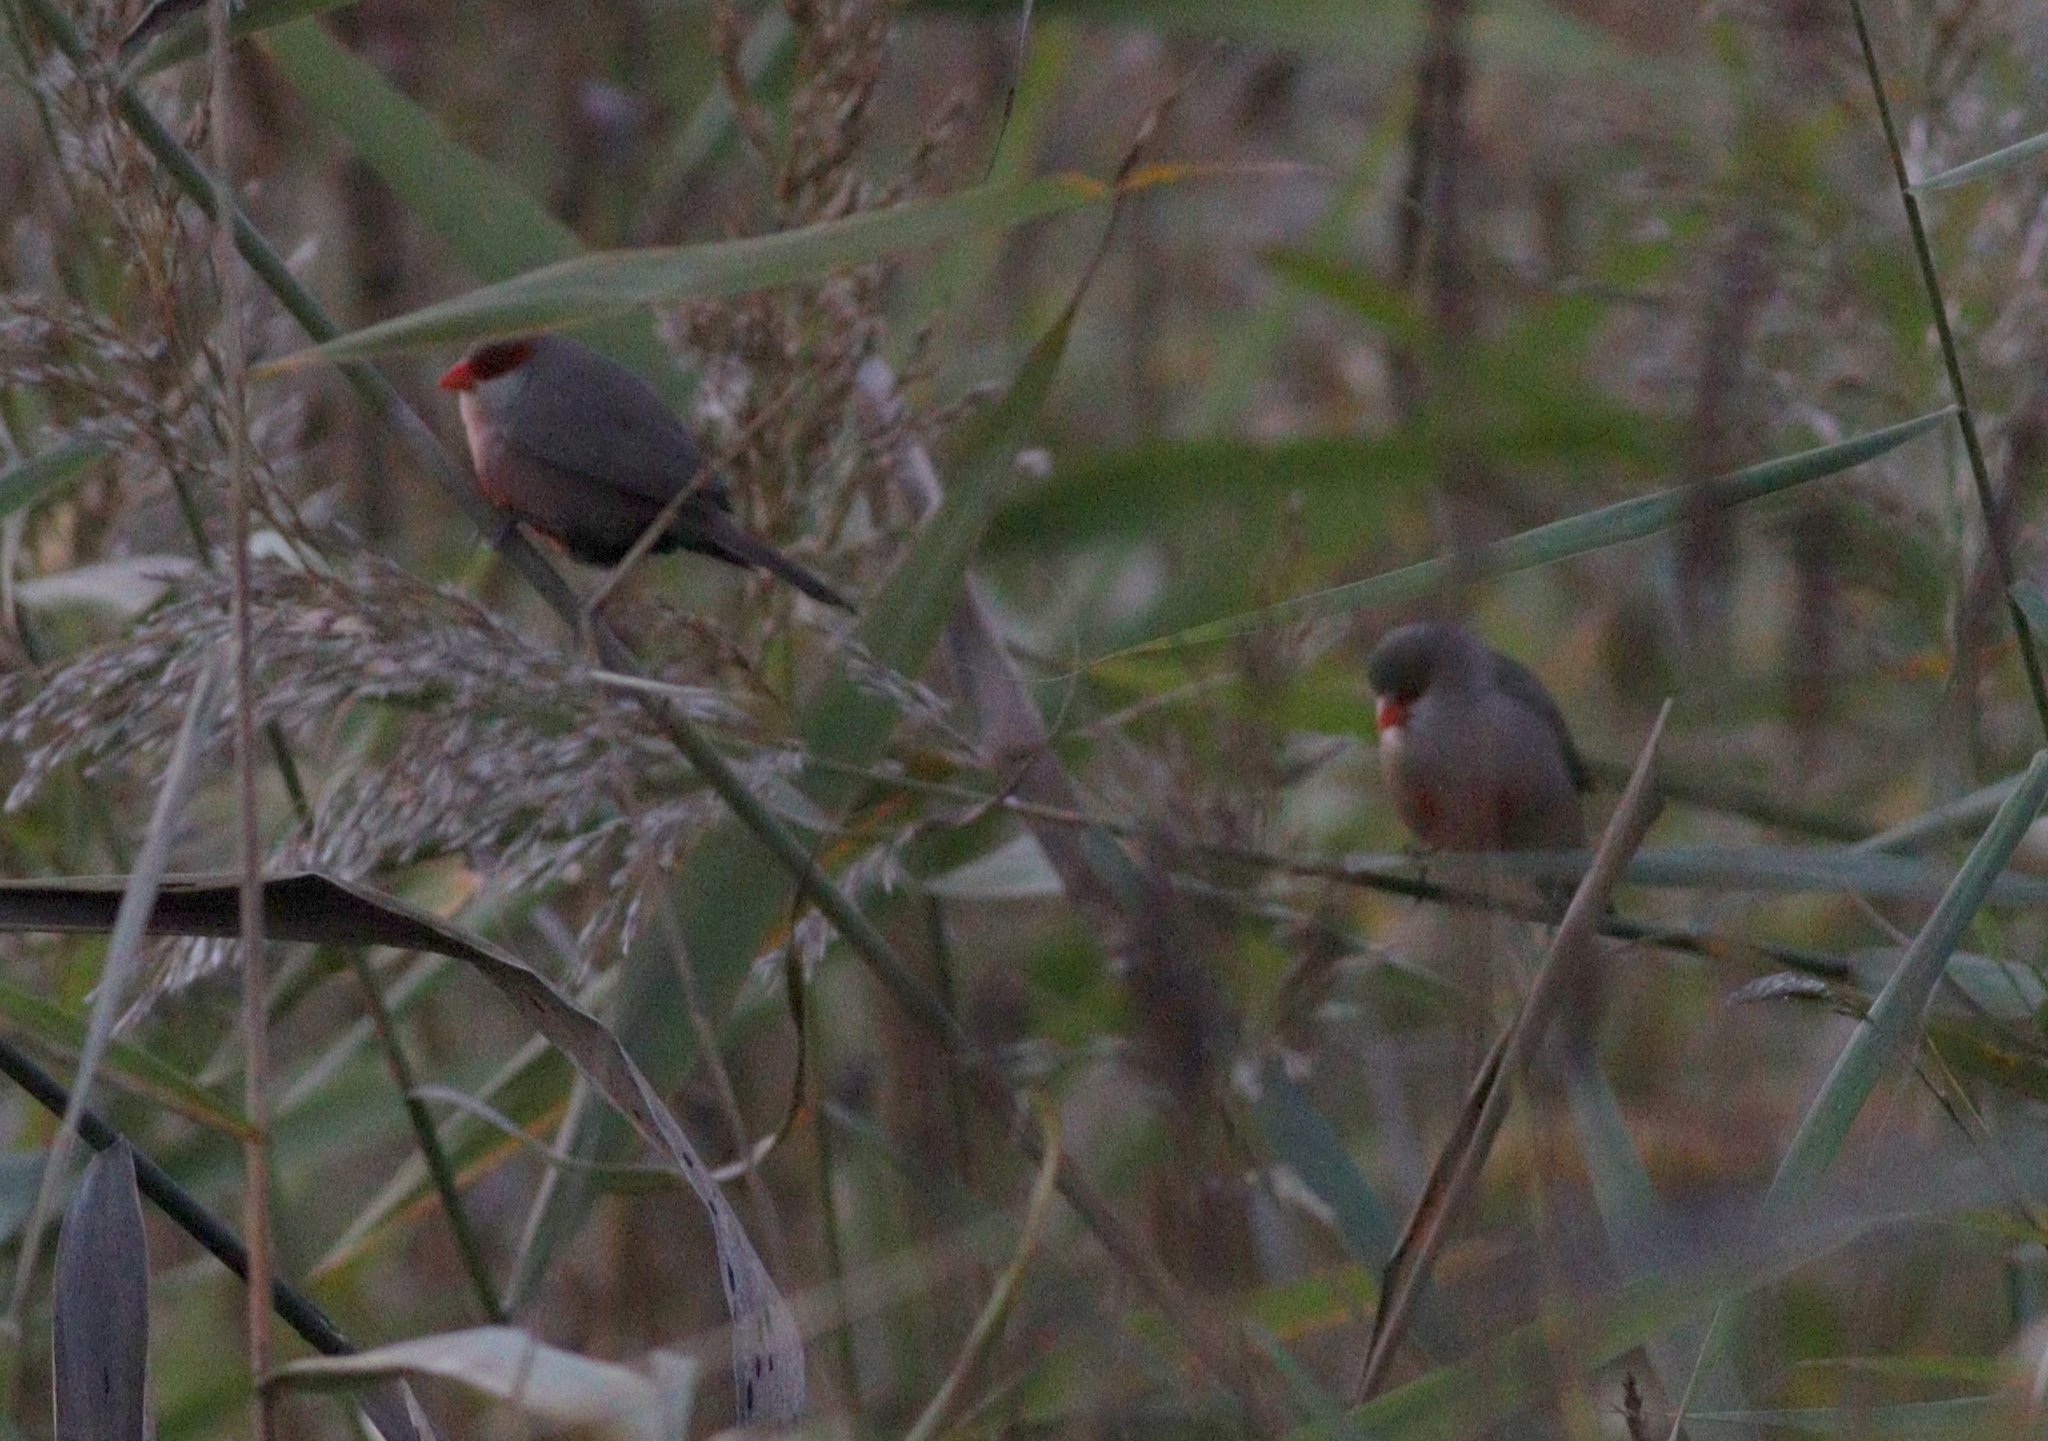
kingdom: Animalia
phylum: Chordata
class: Aves
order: Passeriformes
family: Estrildidae
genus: Estrilda
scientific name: Estrilda astrild
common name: Common waxbill
